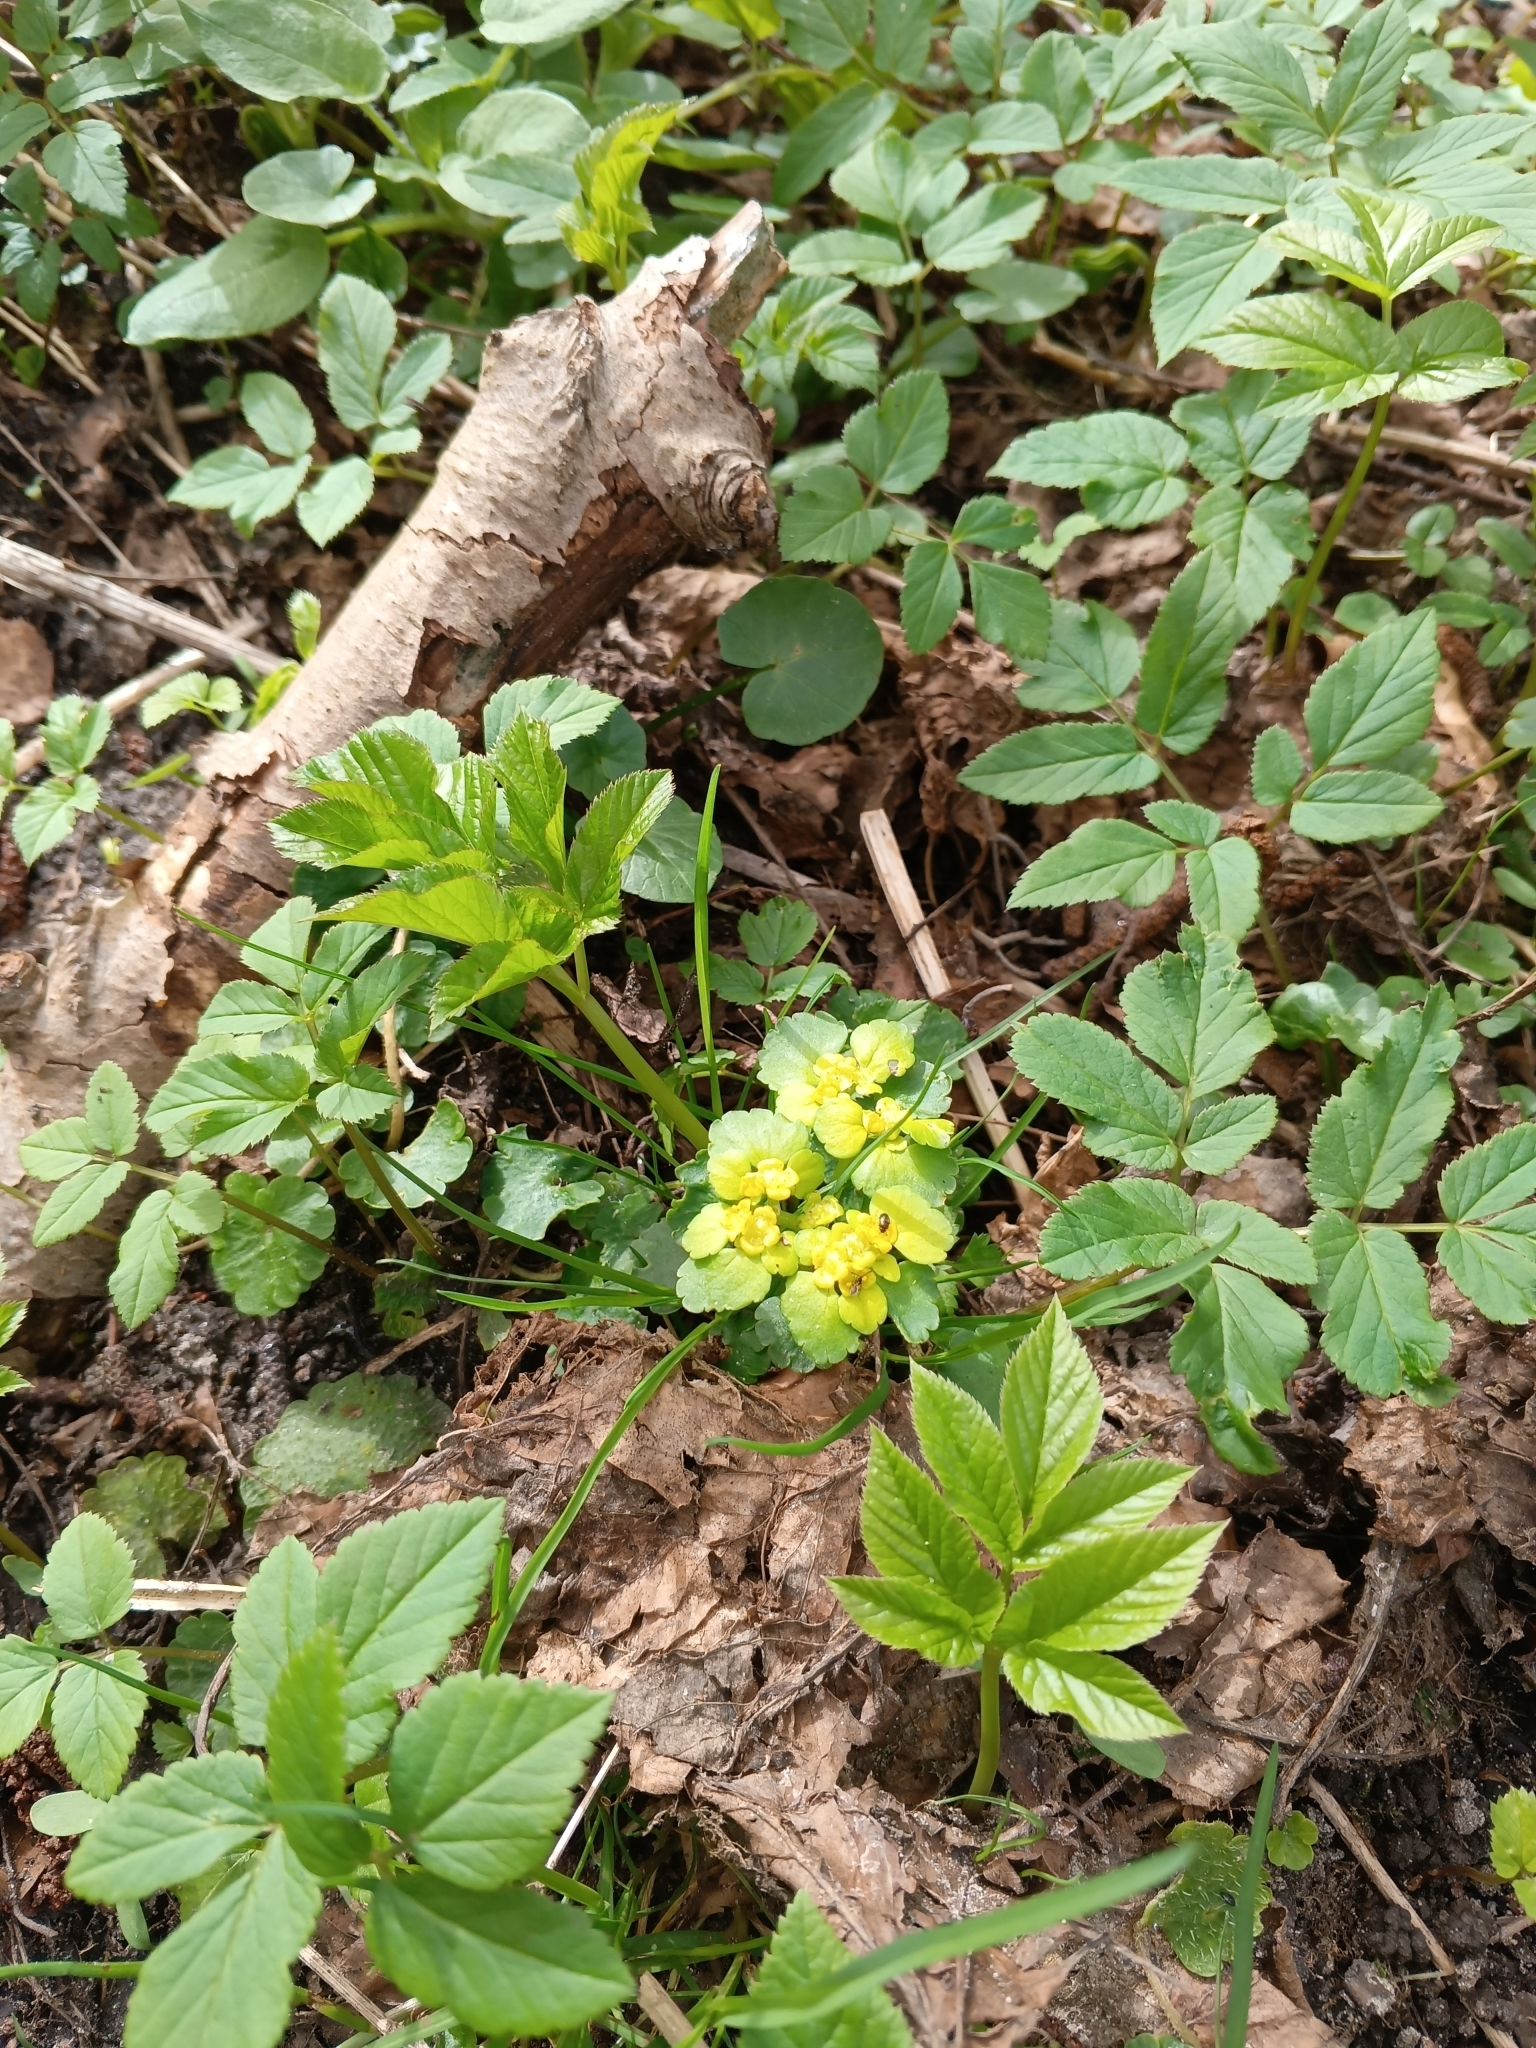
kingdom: Plantae
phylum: Tracheophyta
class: Magnoliopsida
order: Saxifragales
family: Saxifragaceae
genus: Chrysosplenium
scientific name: Chrysosplenium alternifolium
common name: Alternate-leaved golden-saxifrage
